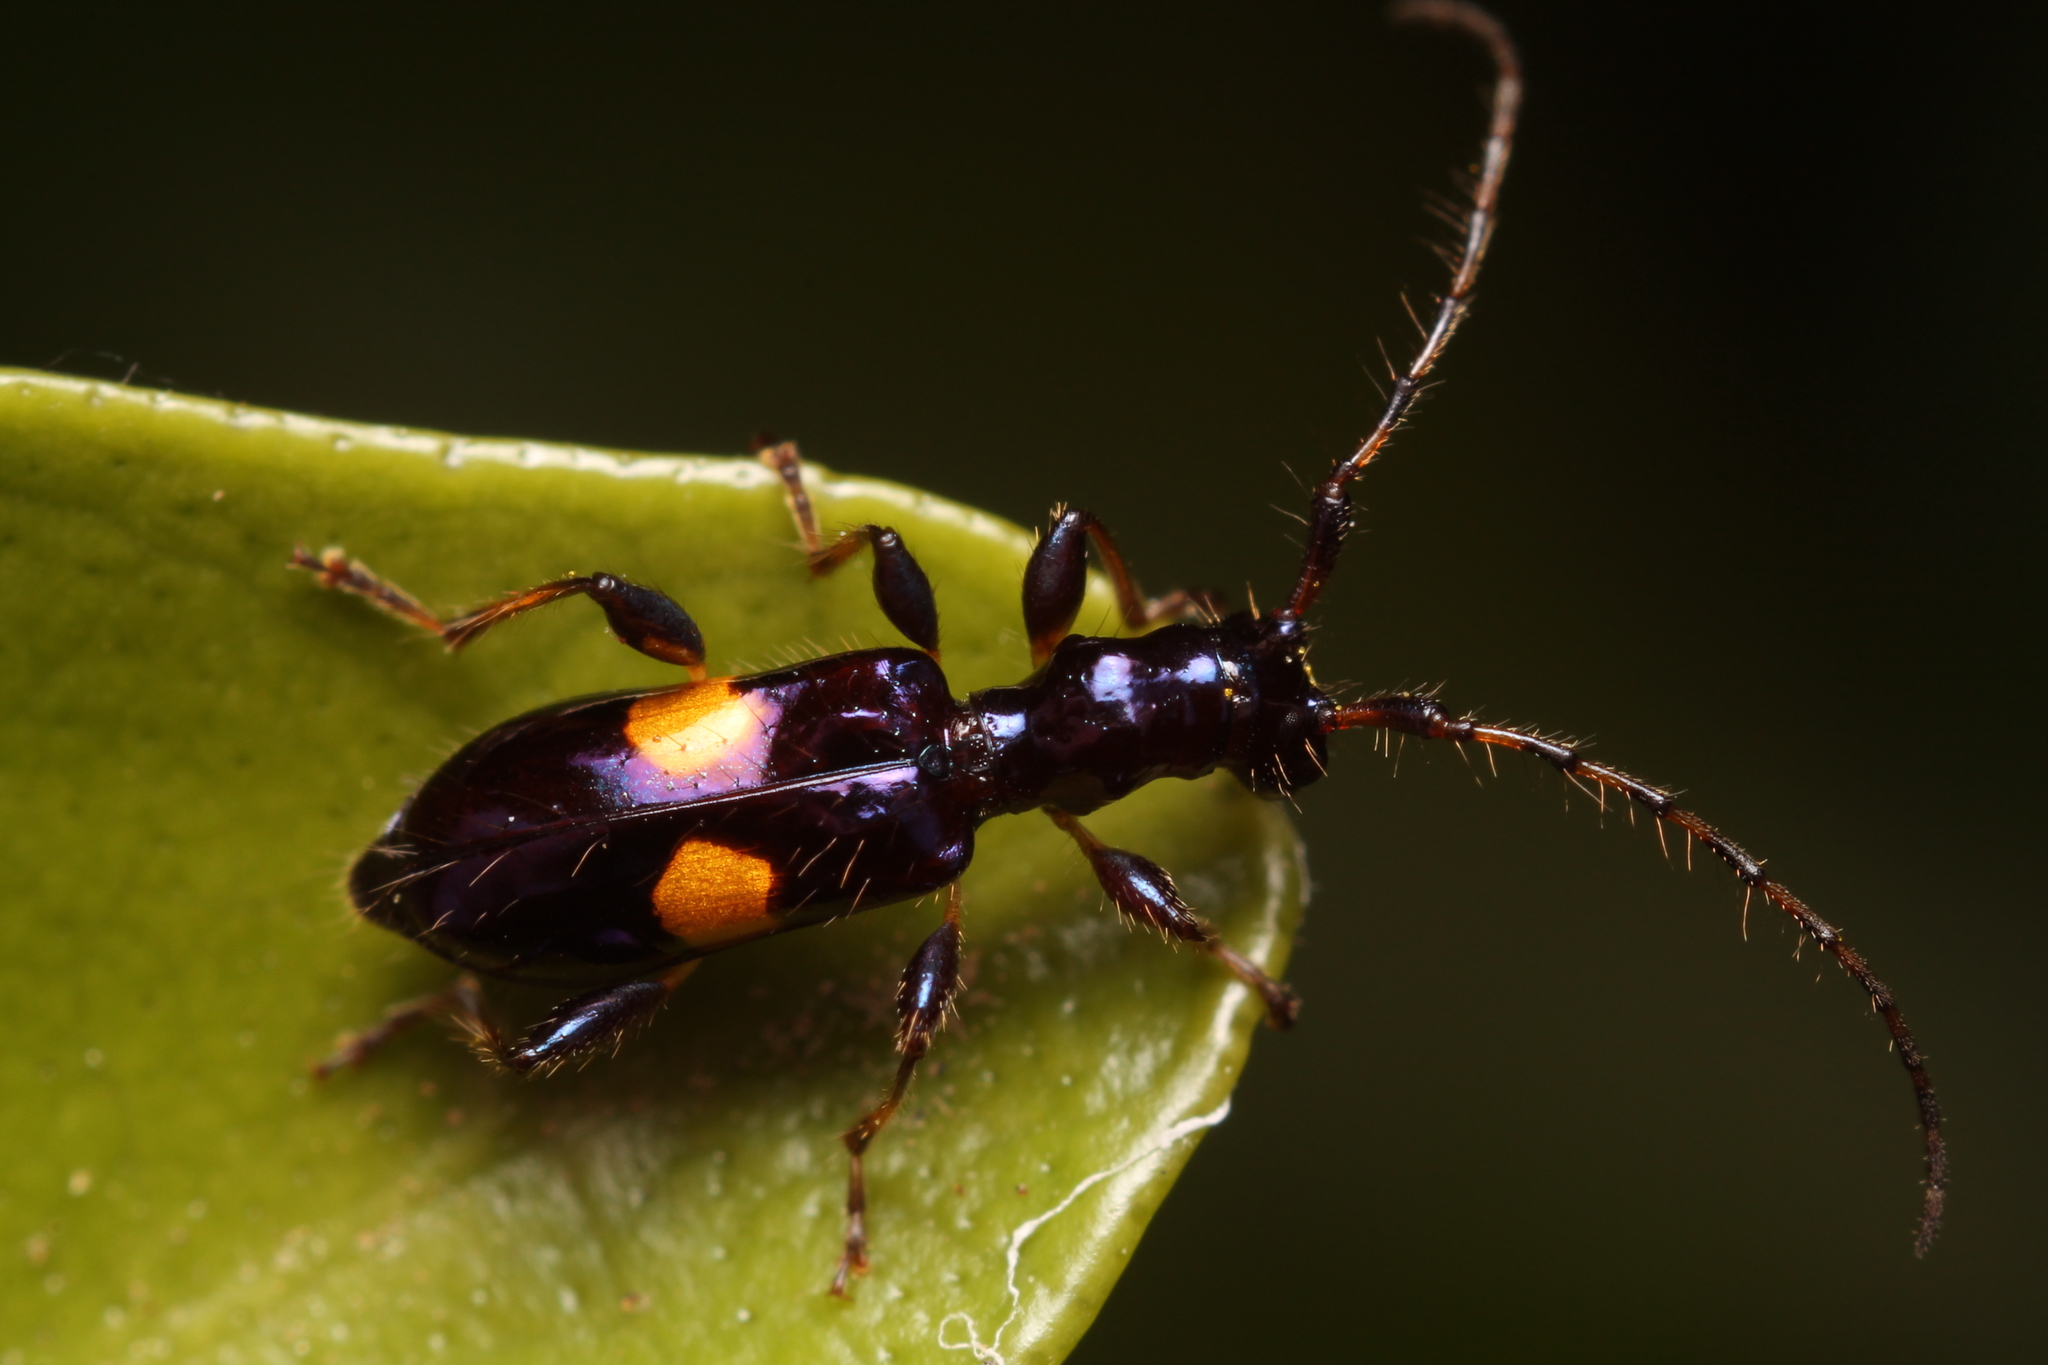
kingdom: Animalia
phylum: Arthropoda
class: Insecta
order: Coleoptera
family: Cerambycidae
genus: Zorion
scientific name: Zorion guttigerum
